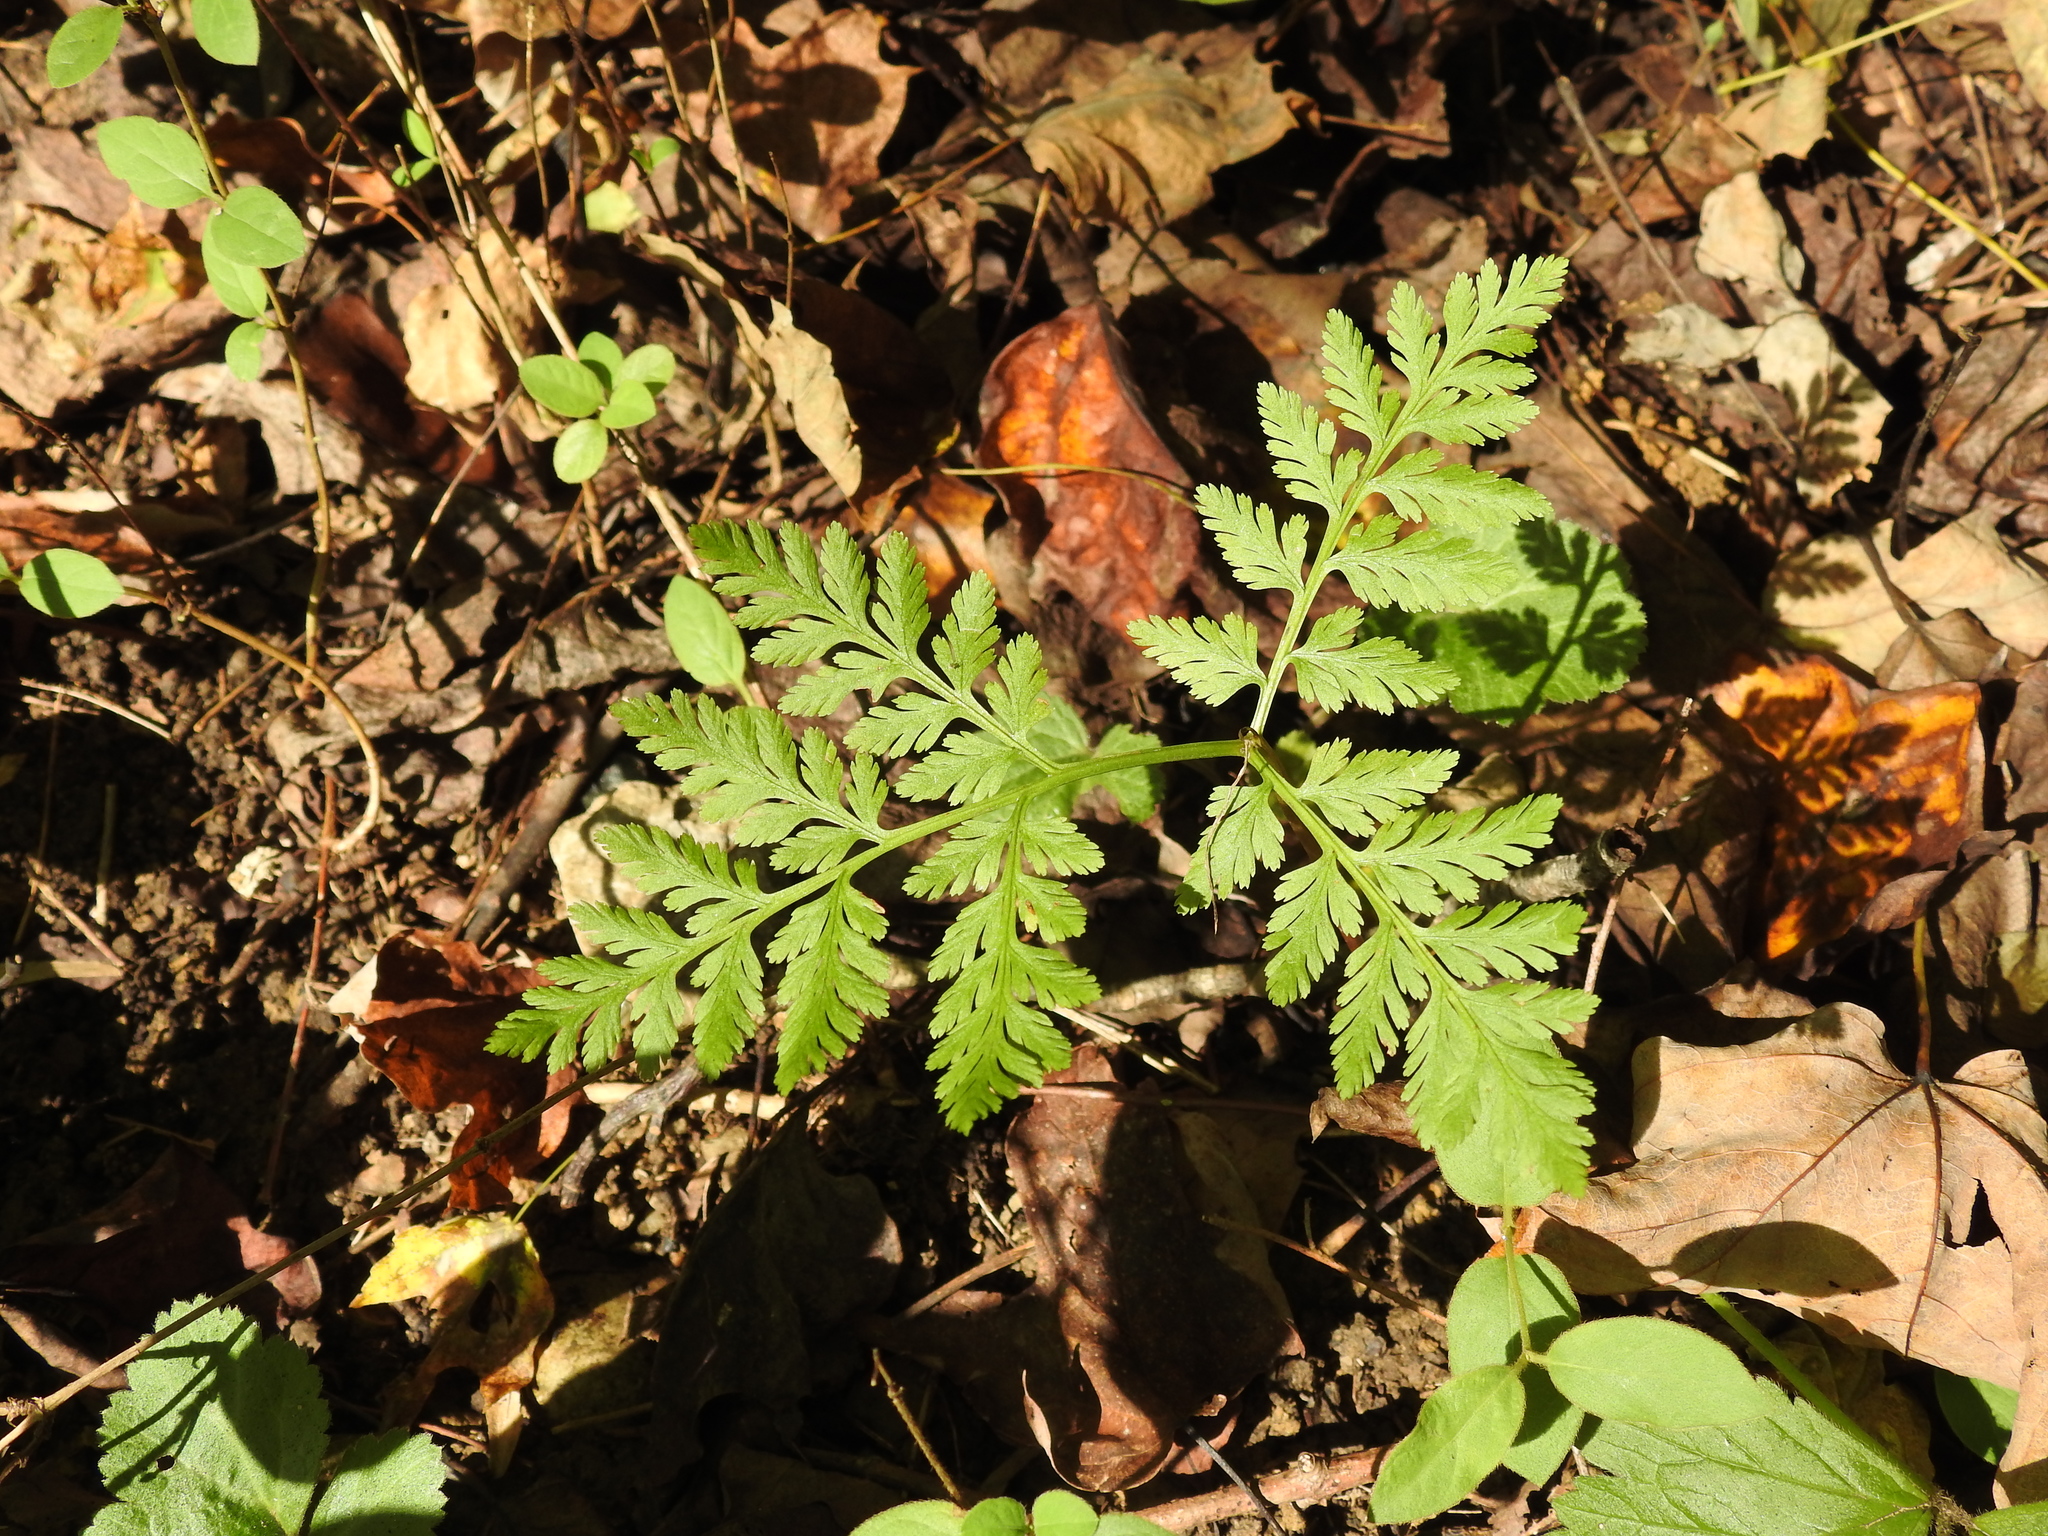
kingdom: Plantae
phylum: Tracheophyta
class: Polypodiopsida
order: Ophioglossales
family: Ophioglossaceae
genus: Botrypus
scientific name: Botrypus virginianus
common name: Common grapefern
